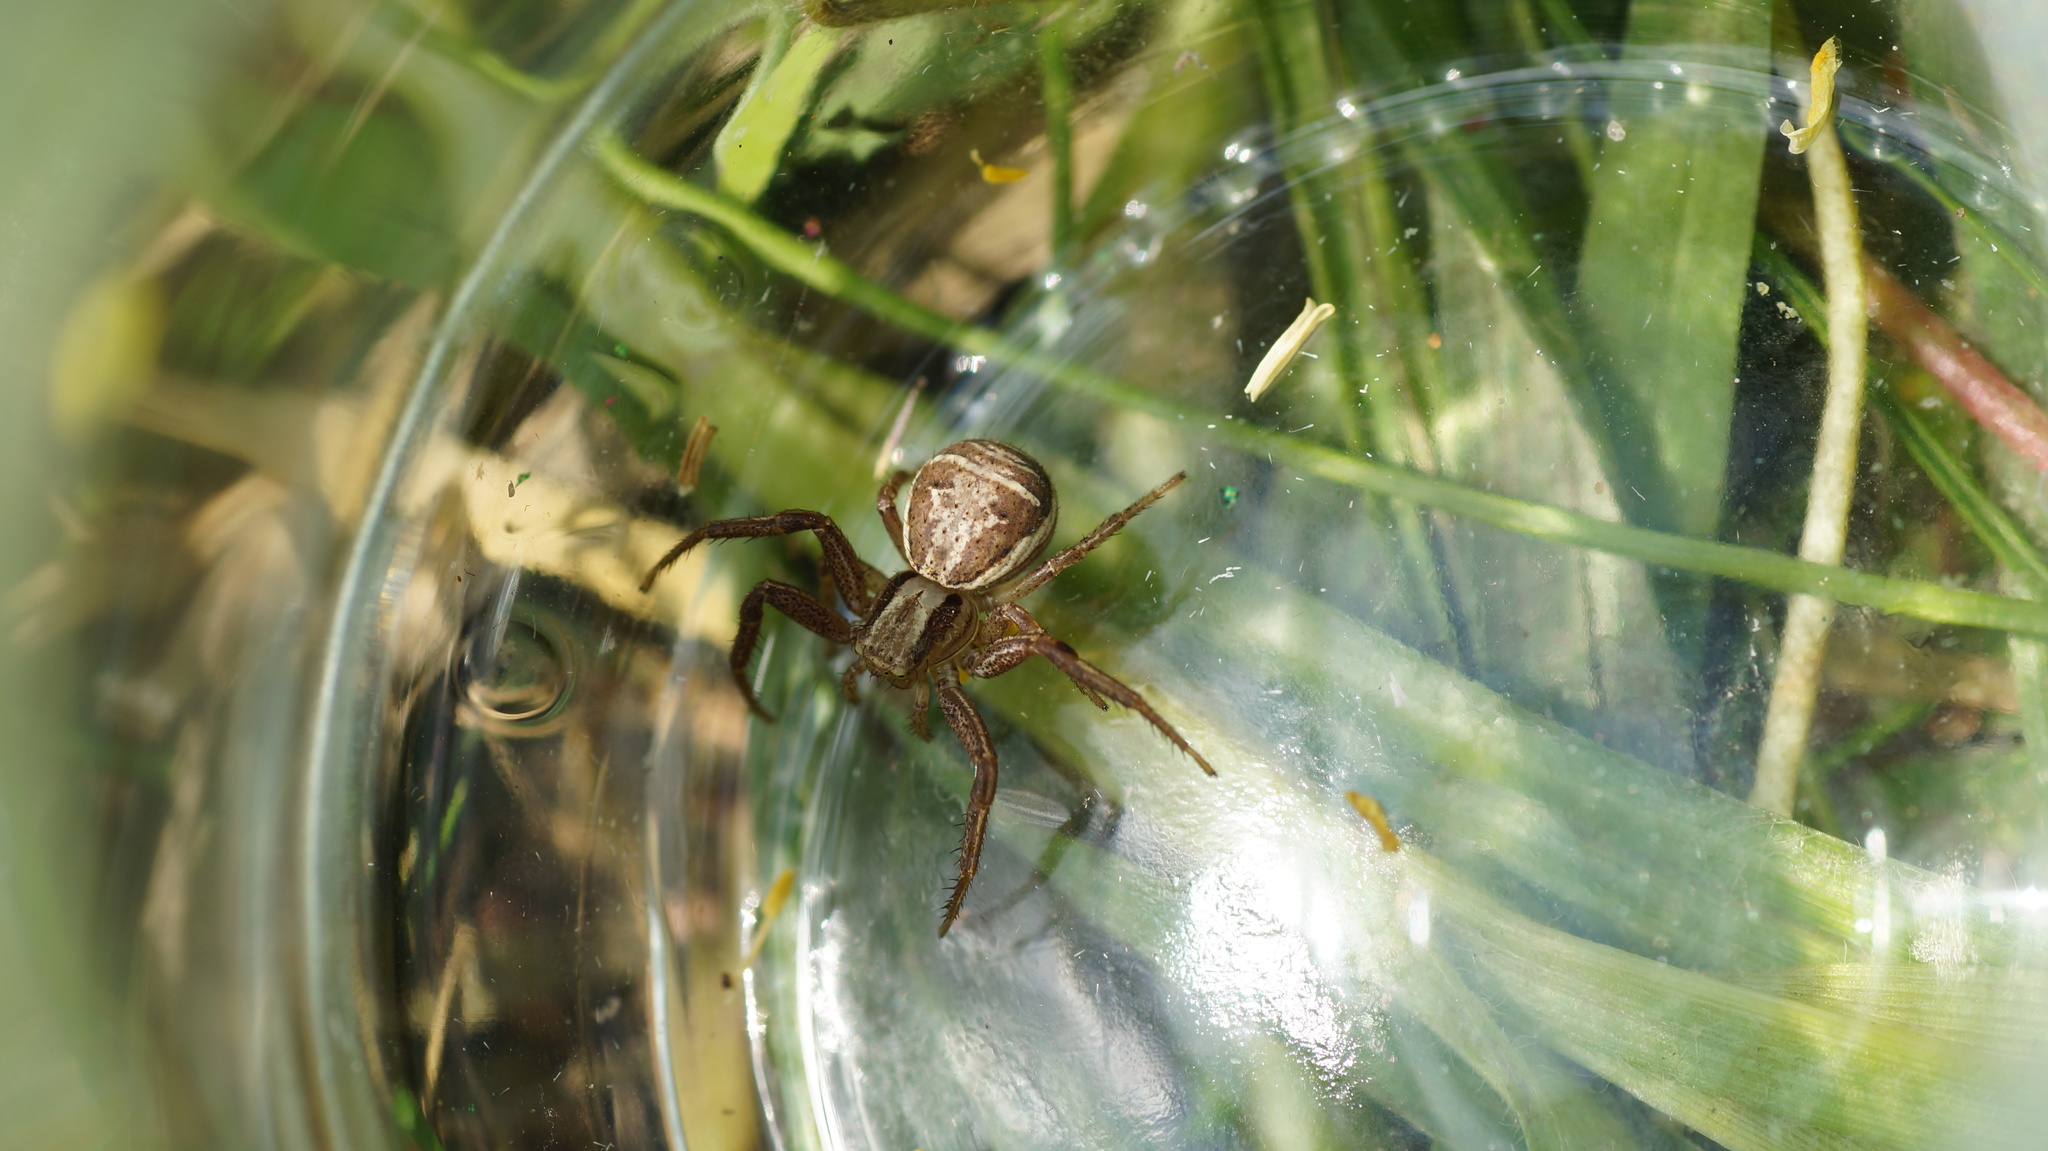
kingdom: Animalia
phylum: Arthropoda
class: Arachnida
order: Araneae
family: Thomisidae
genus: Xysticus
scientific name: Xysticus ulmi
